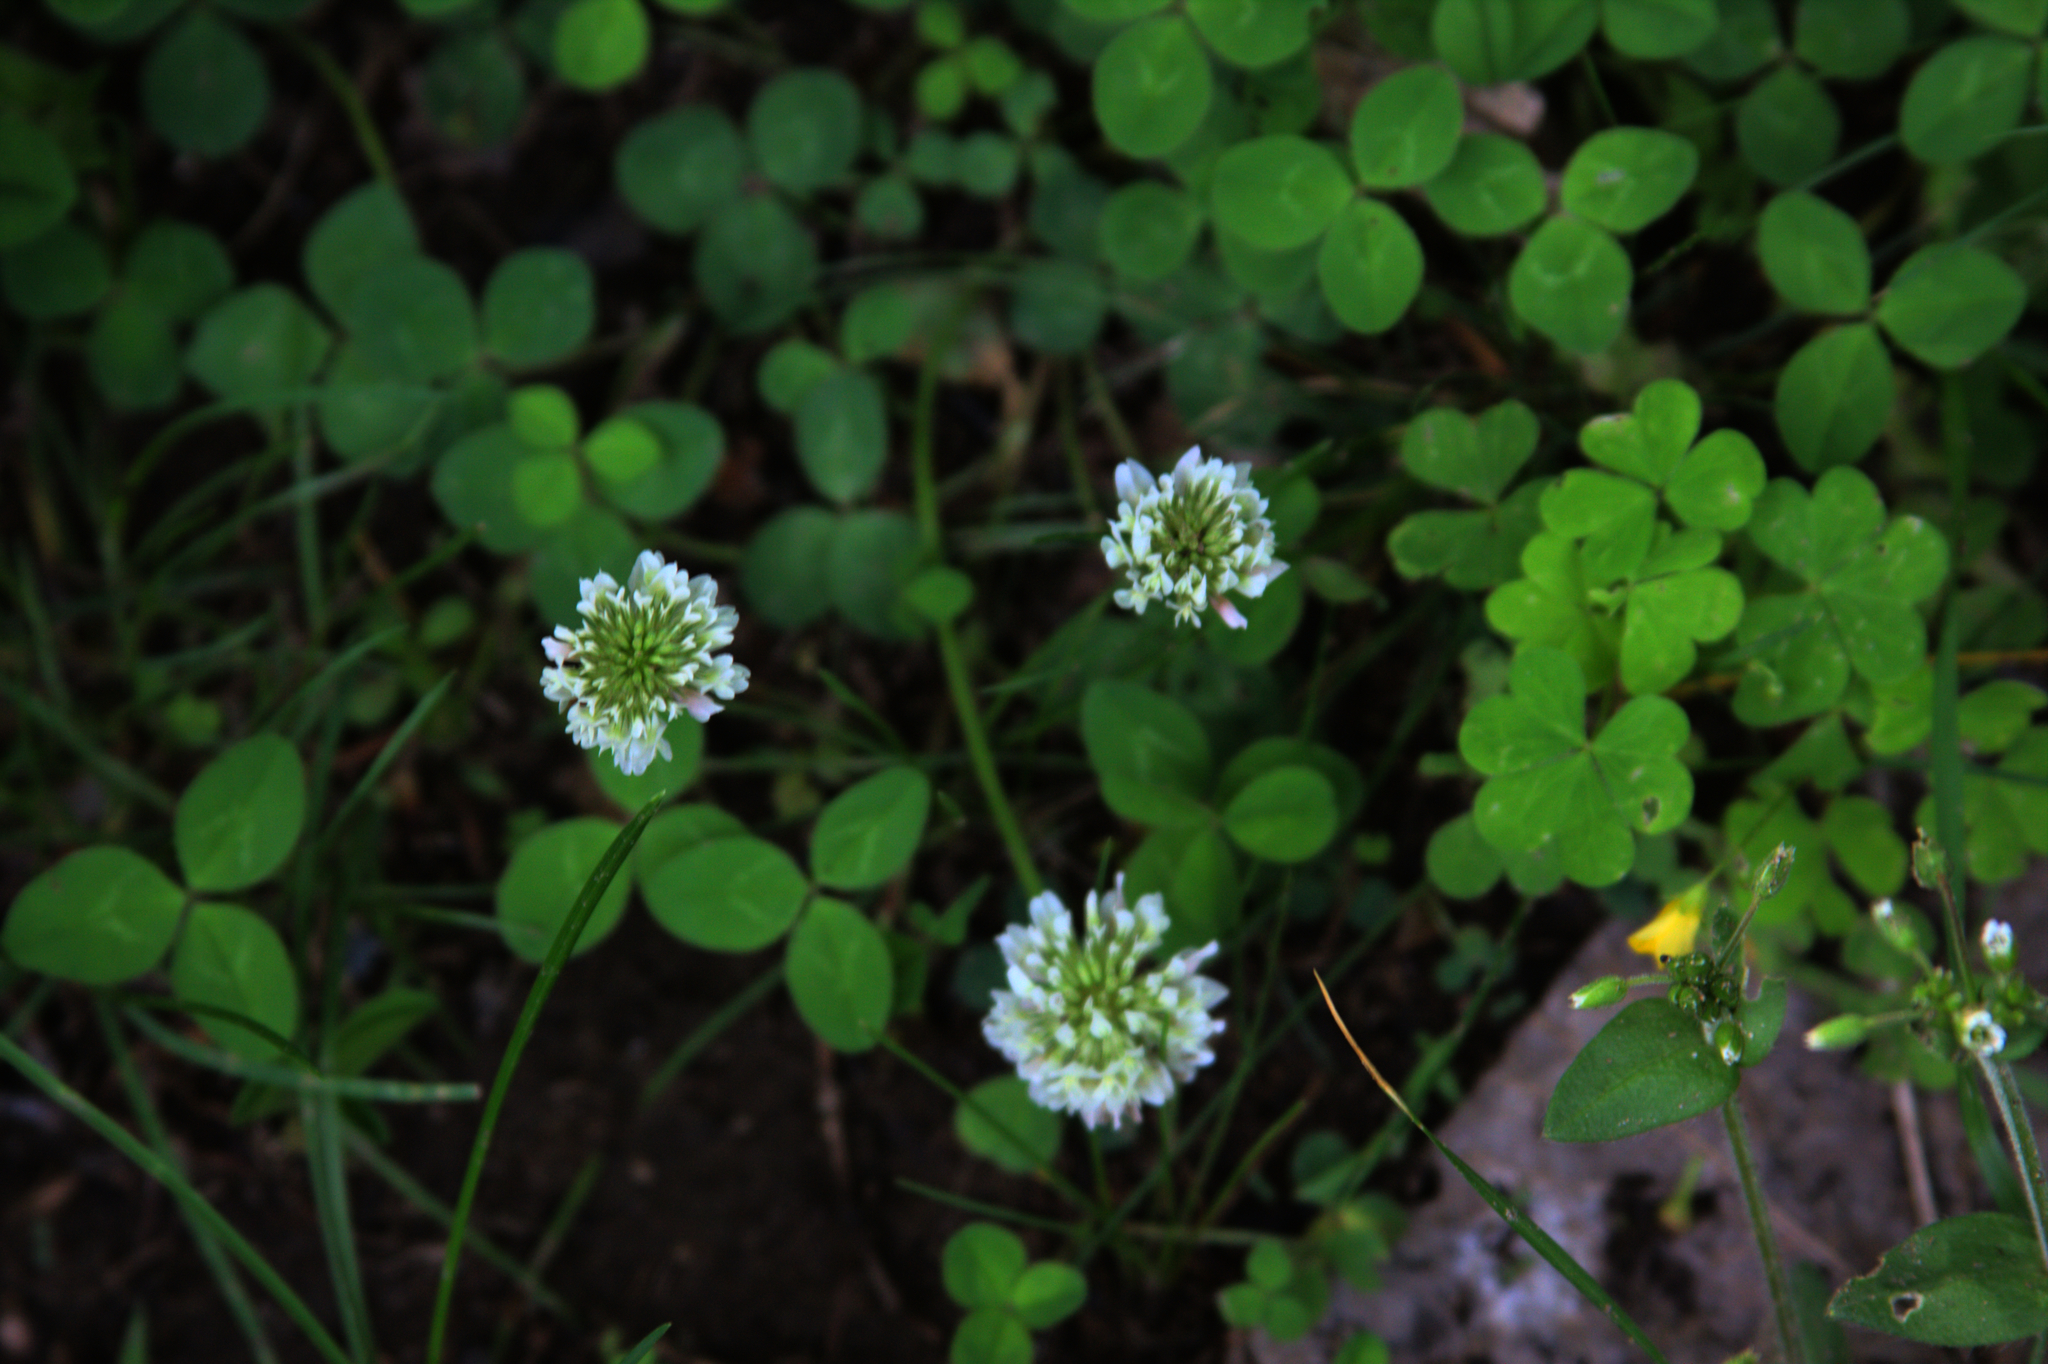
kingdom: Plantae
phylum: Tracheophyta
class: Magnoliopsida
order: Fabales
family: Fabaceae
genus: Trifolium
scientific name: Trifolium repens
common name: White clover
